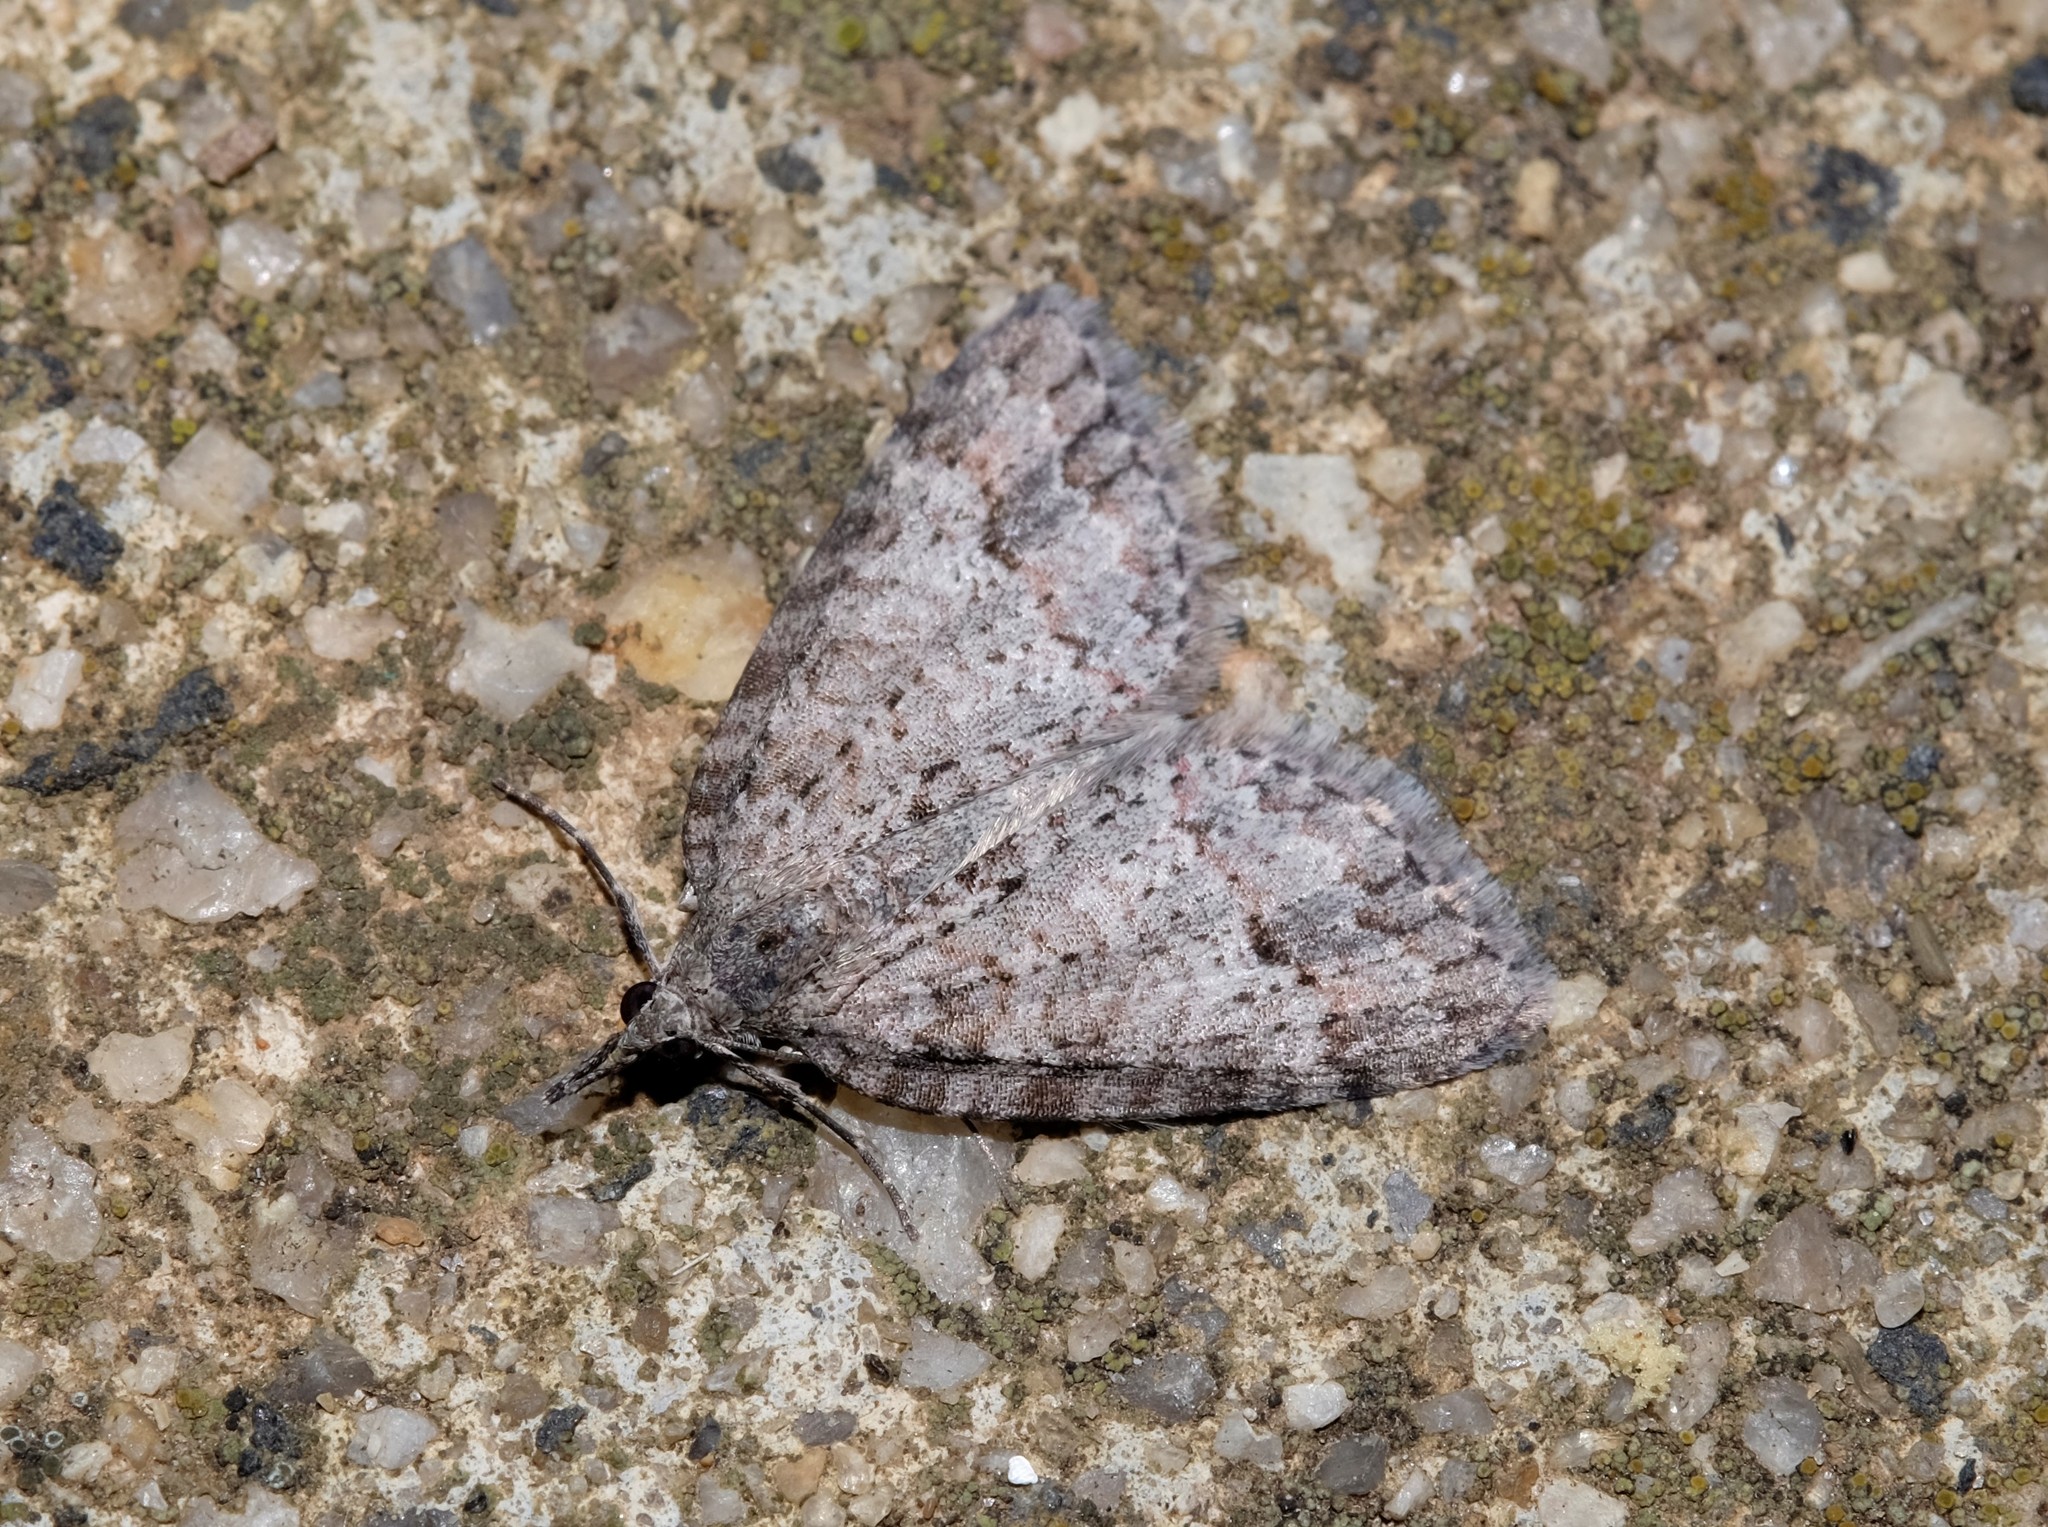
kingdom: Animalia
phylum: Arthropoda
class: Insecta
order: Lepidoptera
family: Geometridae
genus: Microdes
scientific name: Microdes villosata
